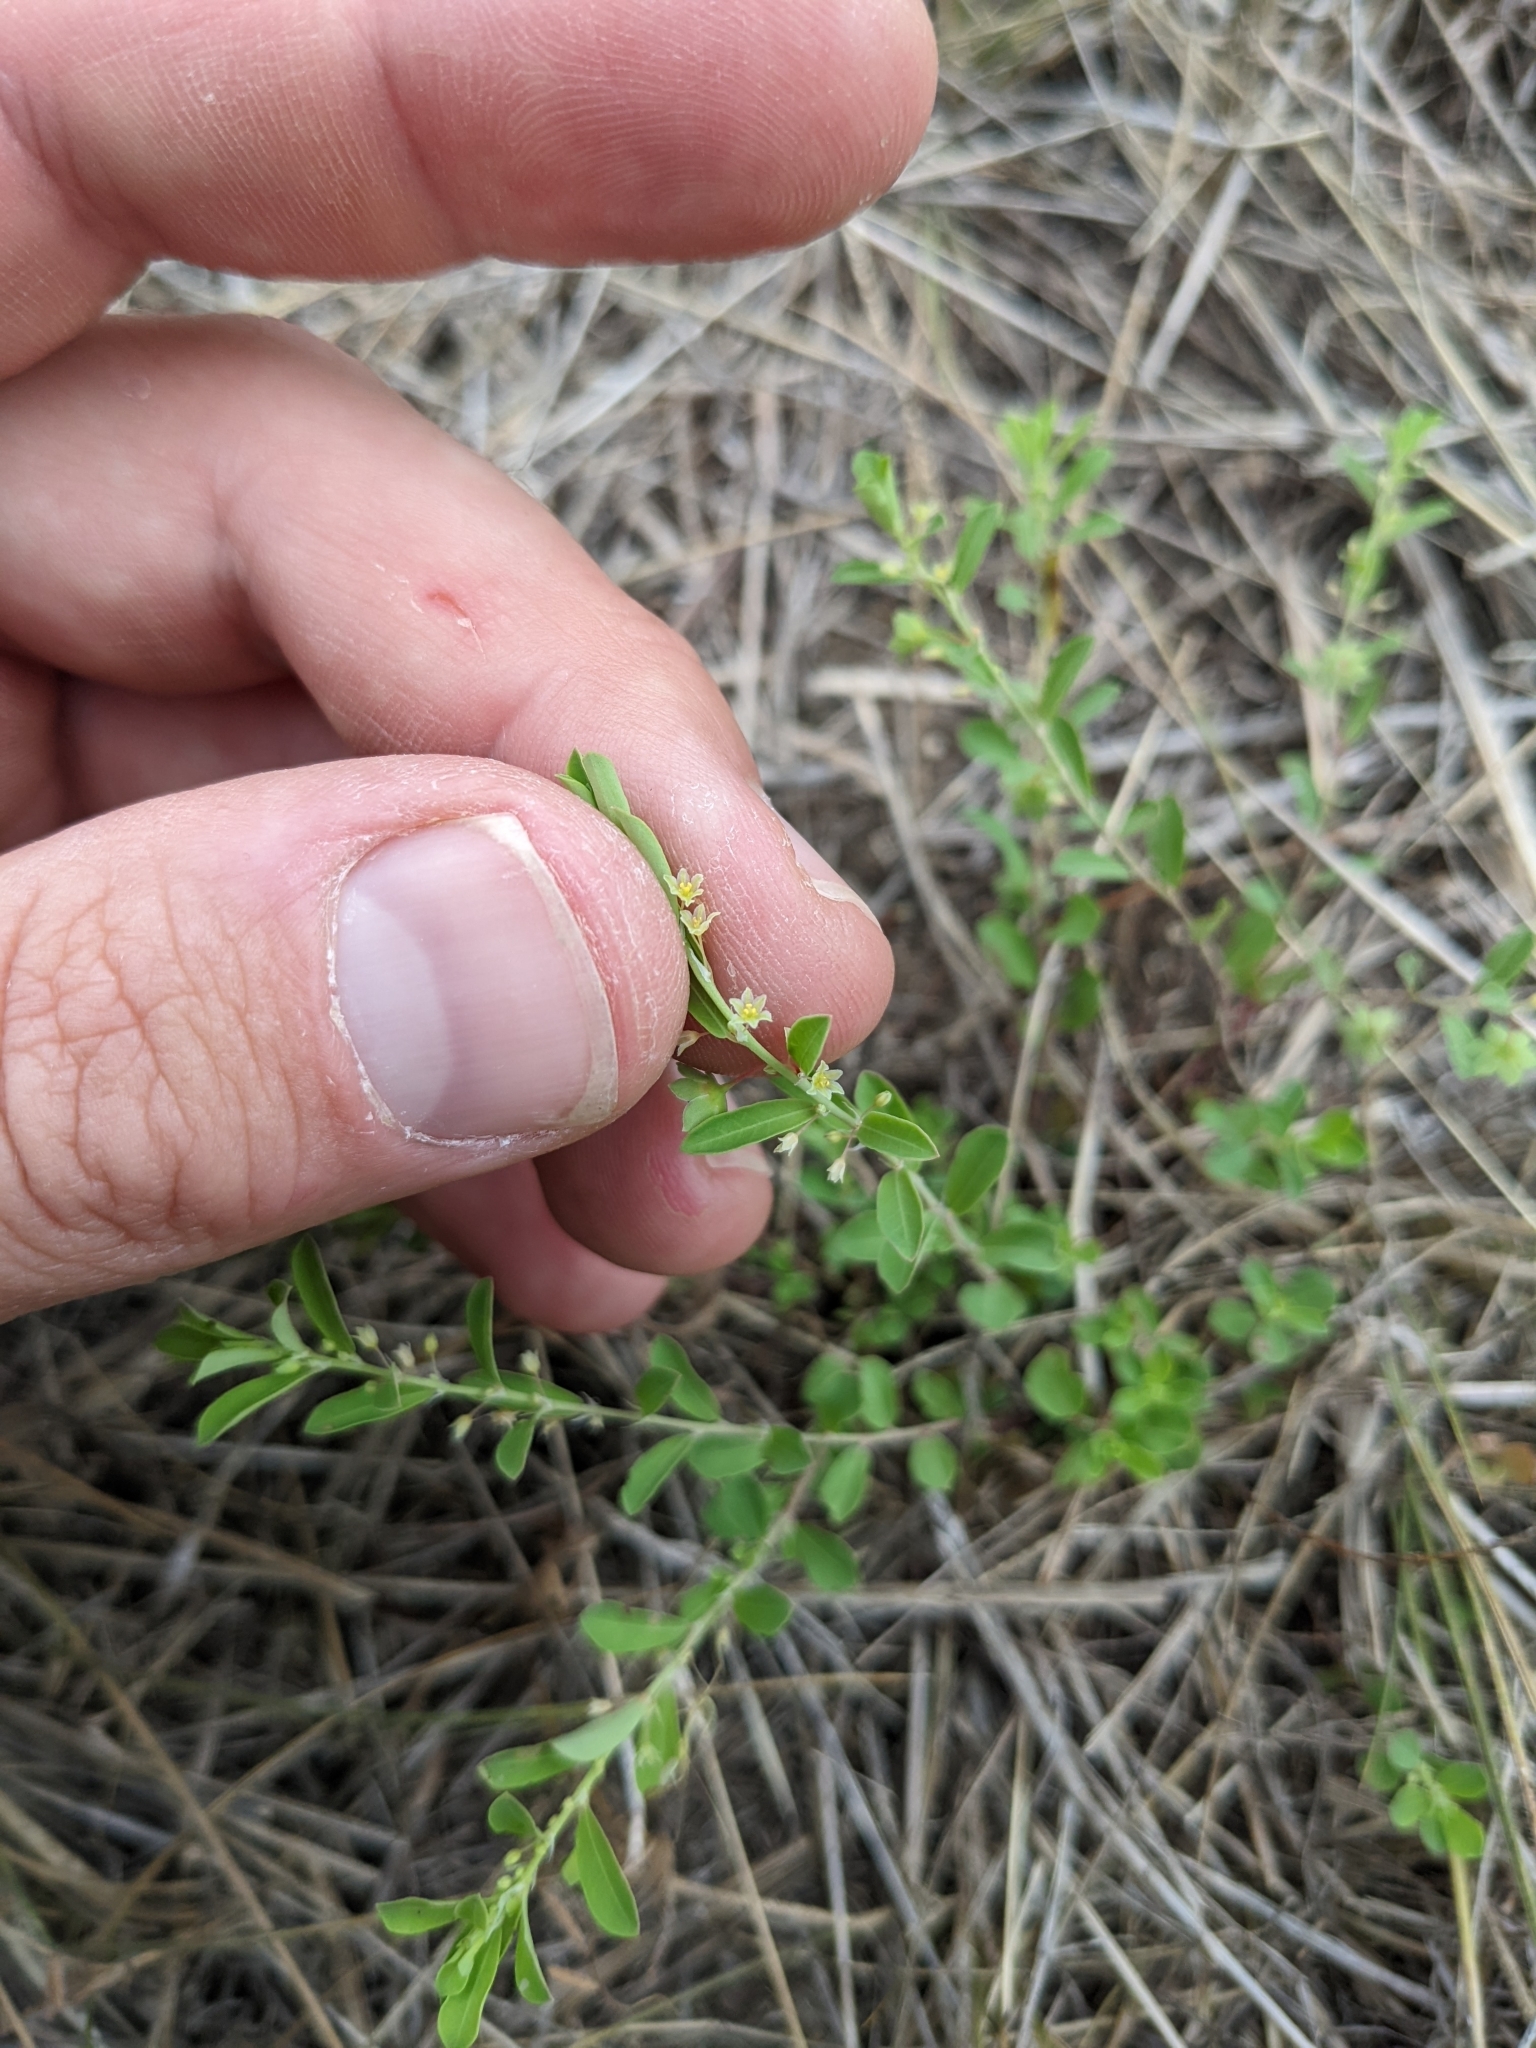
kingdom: Plantae
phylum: Tracheophyta
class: Magnoliopsida
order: Malpighiales
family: Phyllanthaceae
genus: Phyllanthus
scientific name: Phyllanthus polygonoides
